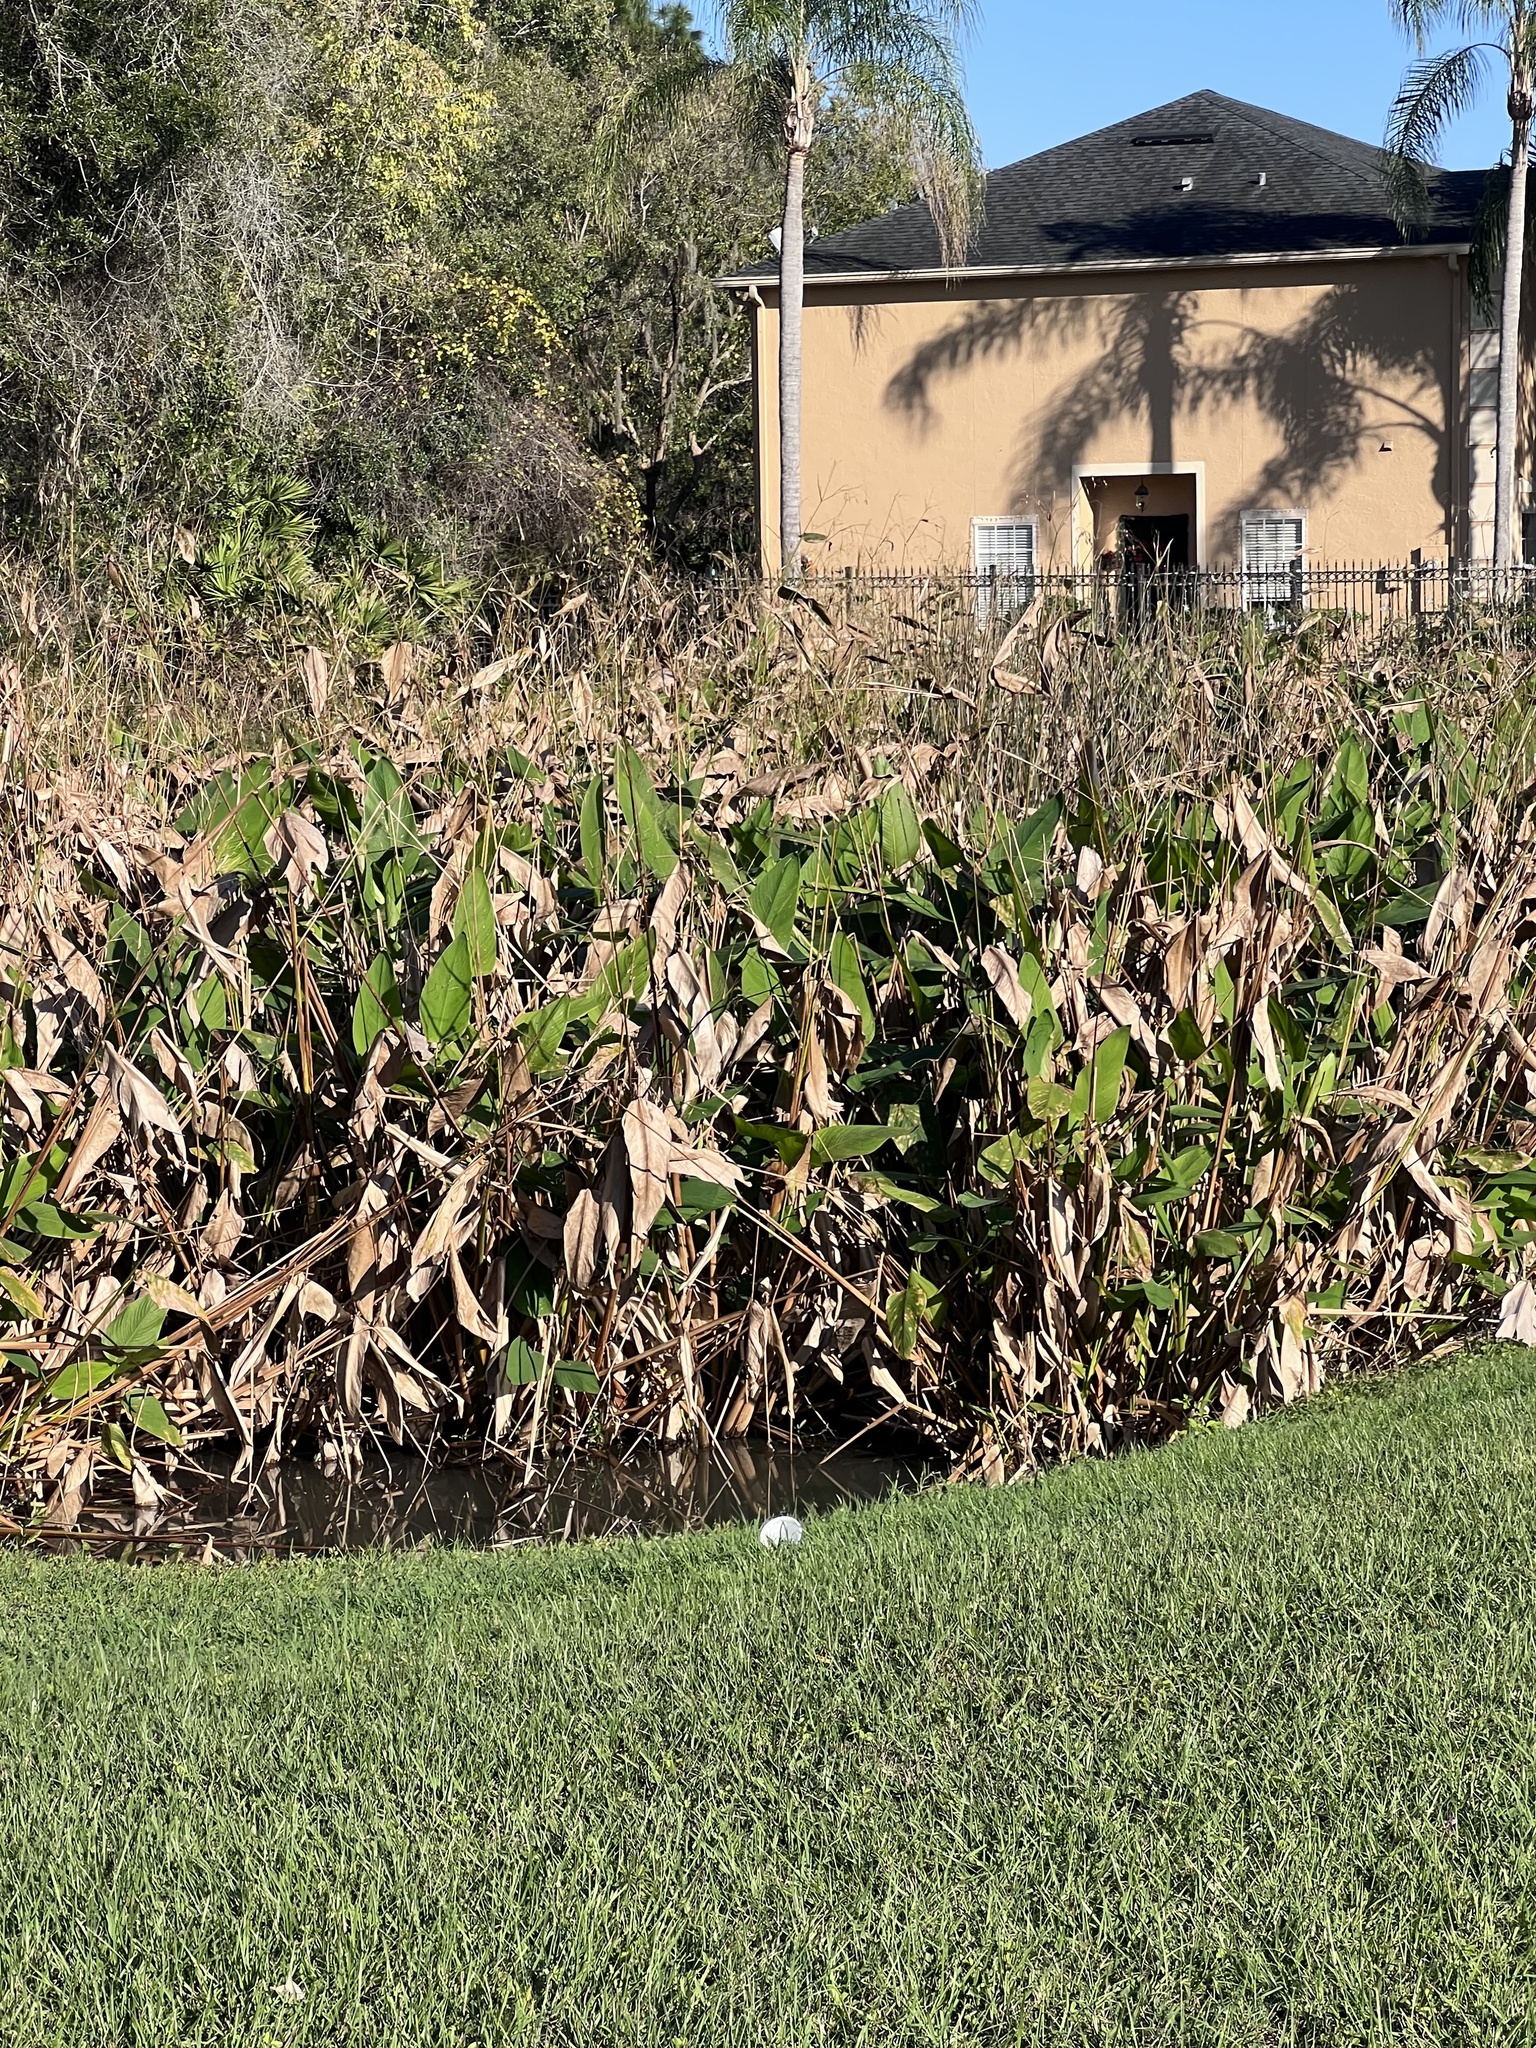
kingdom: Plantae
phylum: Tracheophyta
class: Liliopsida
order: Zingiberales
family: Marantaceae
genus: Thalia
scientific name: Thalia geniculata
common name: Arrowroot
